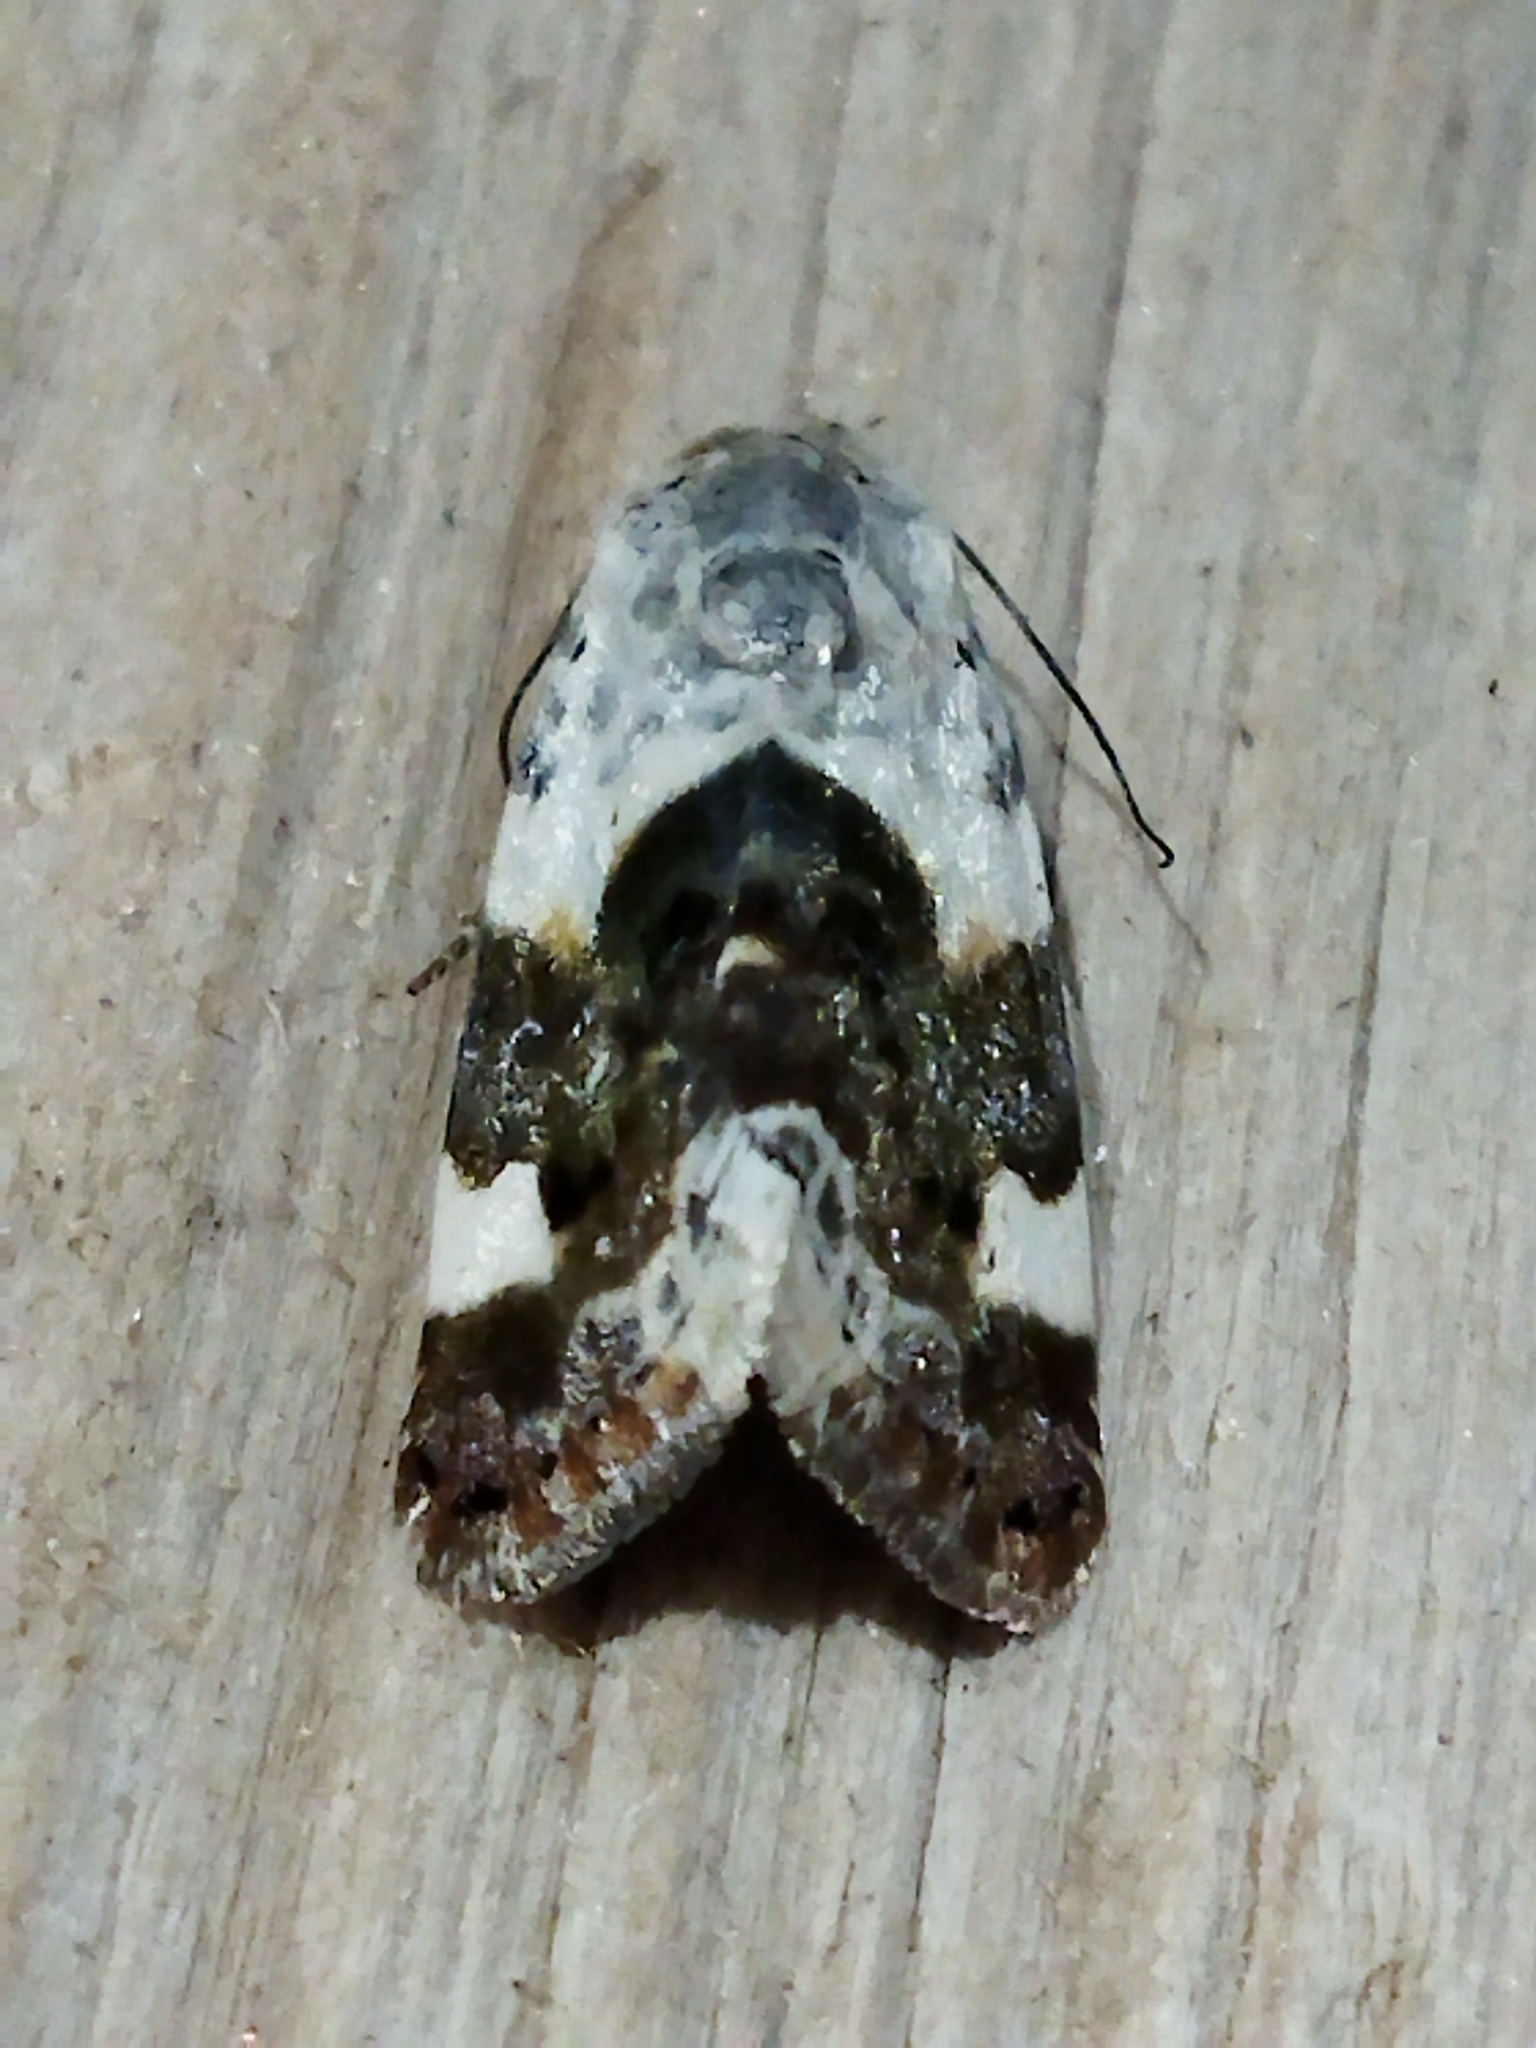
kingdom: Animalia
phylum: Arthropoda
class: Insecta
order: Lepidoptera
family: Noctuidae
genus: Acontia
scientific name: Acontia lucida
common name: Pale shoulder
